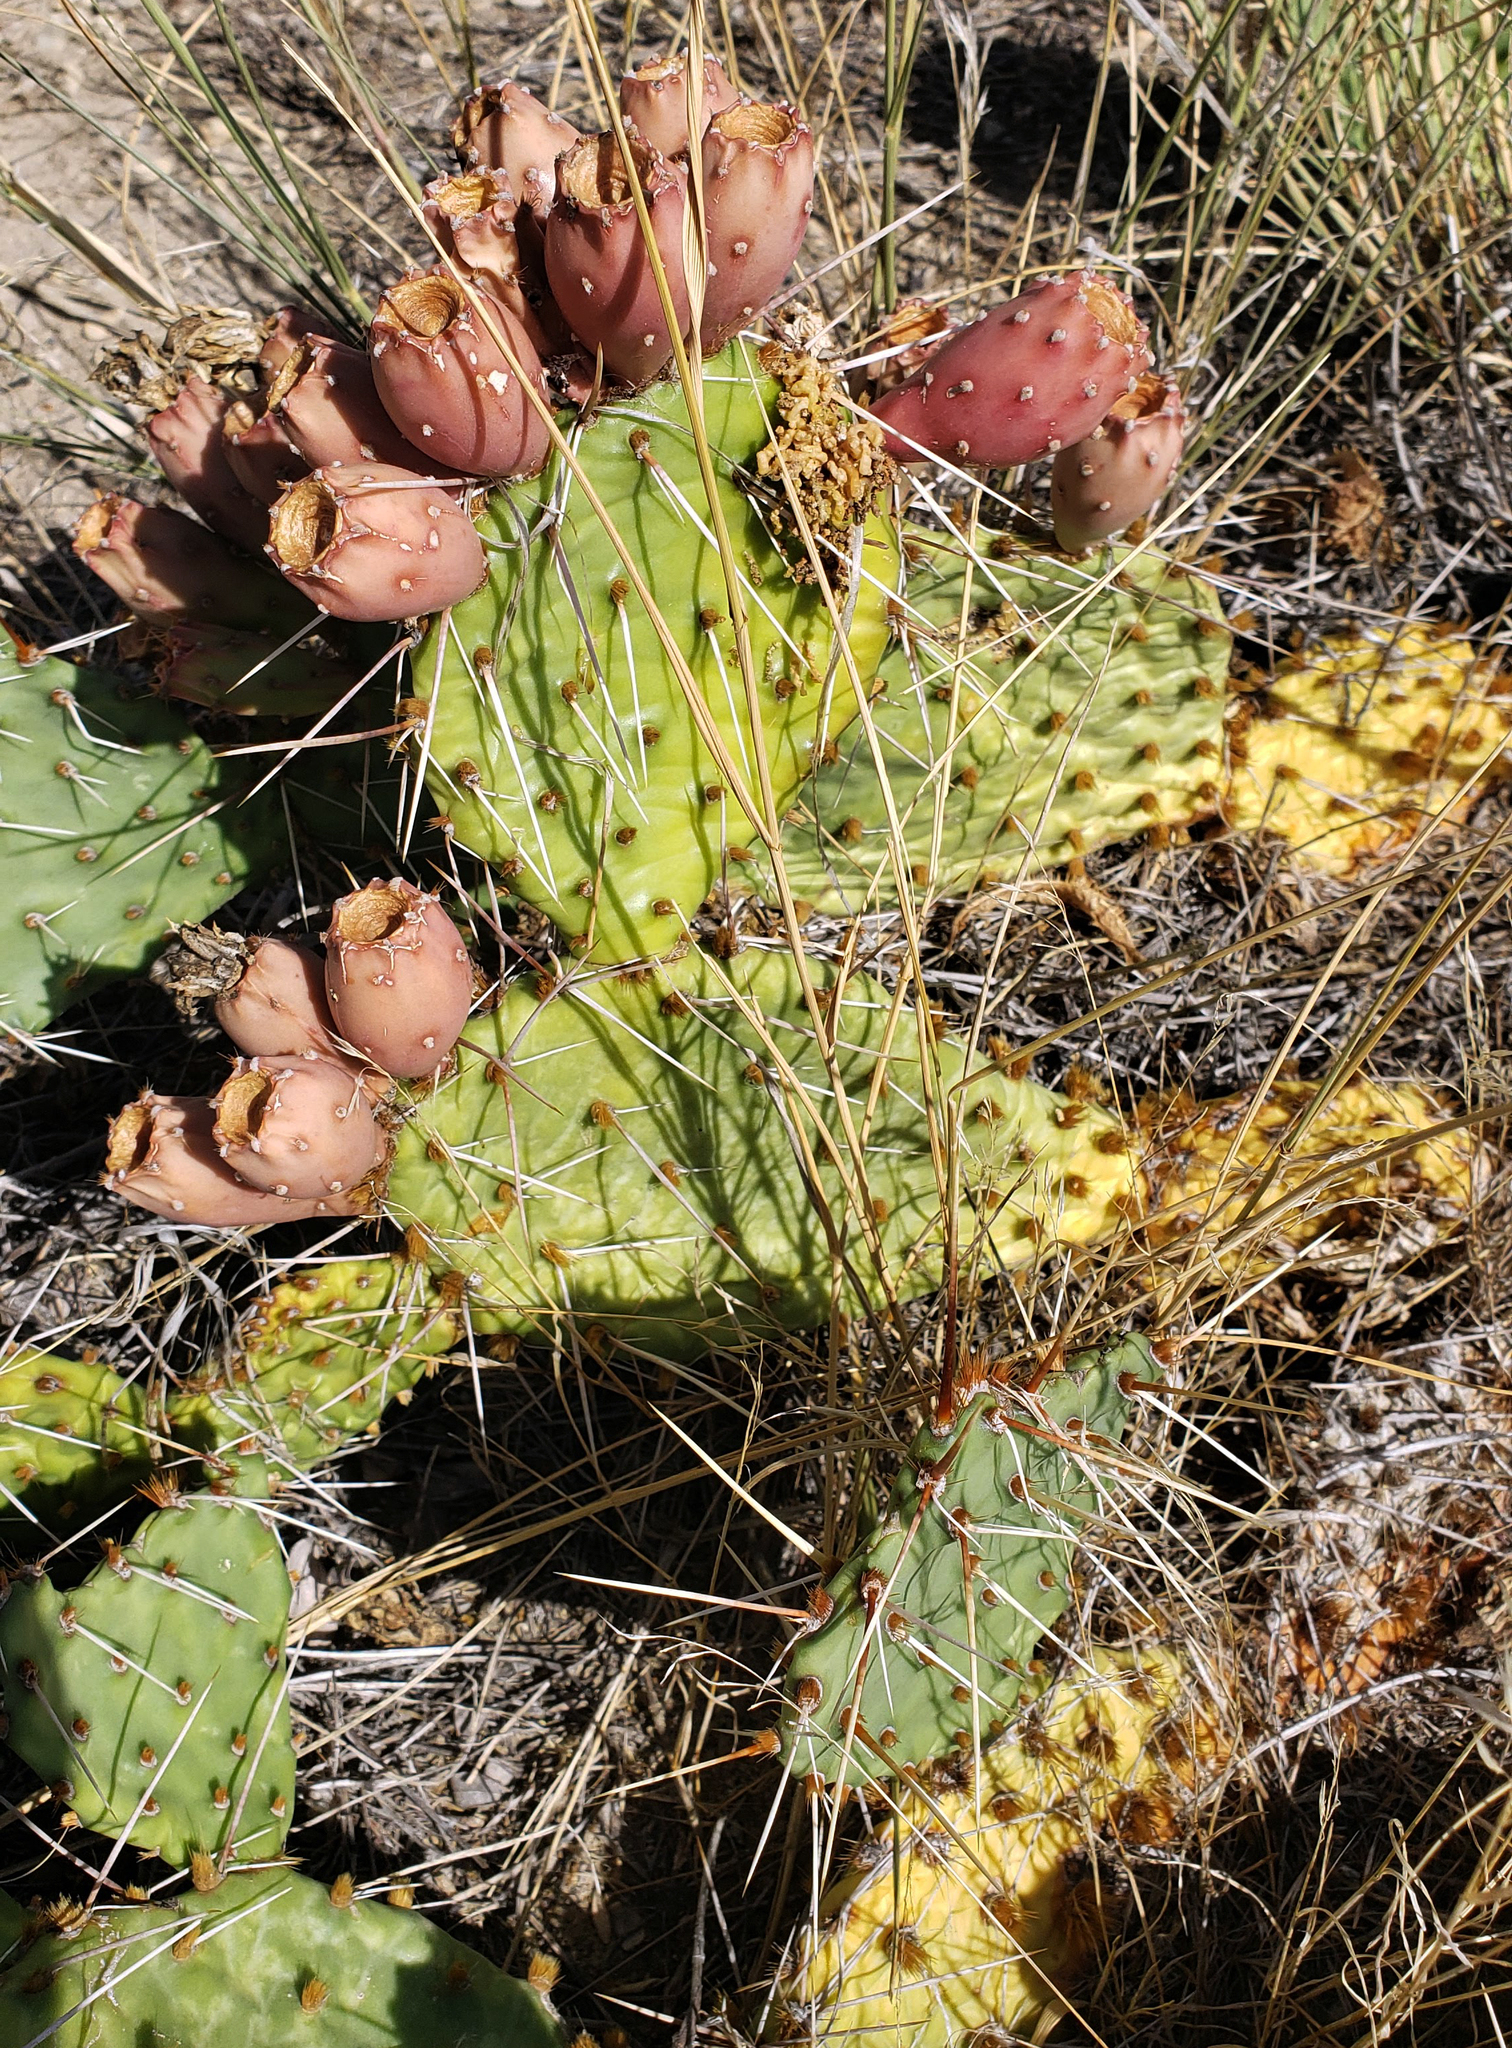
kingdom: Plantae
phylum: Tracheophyta
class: Magnoliopsida
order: Caryophyllales
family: Cactaceae
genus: Opuntia
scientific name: Opuntia cymochila
